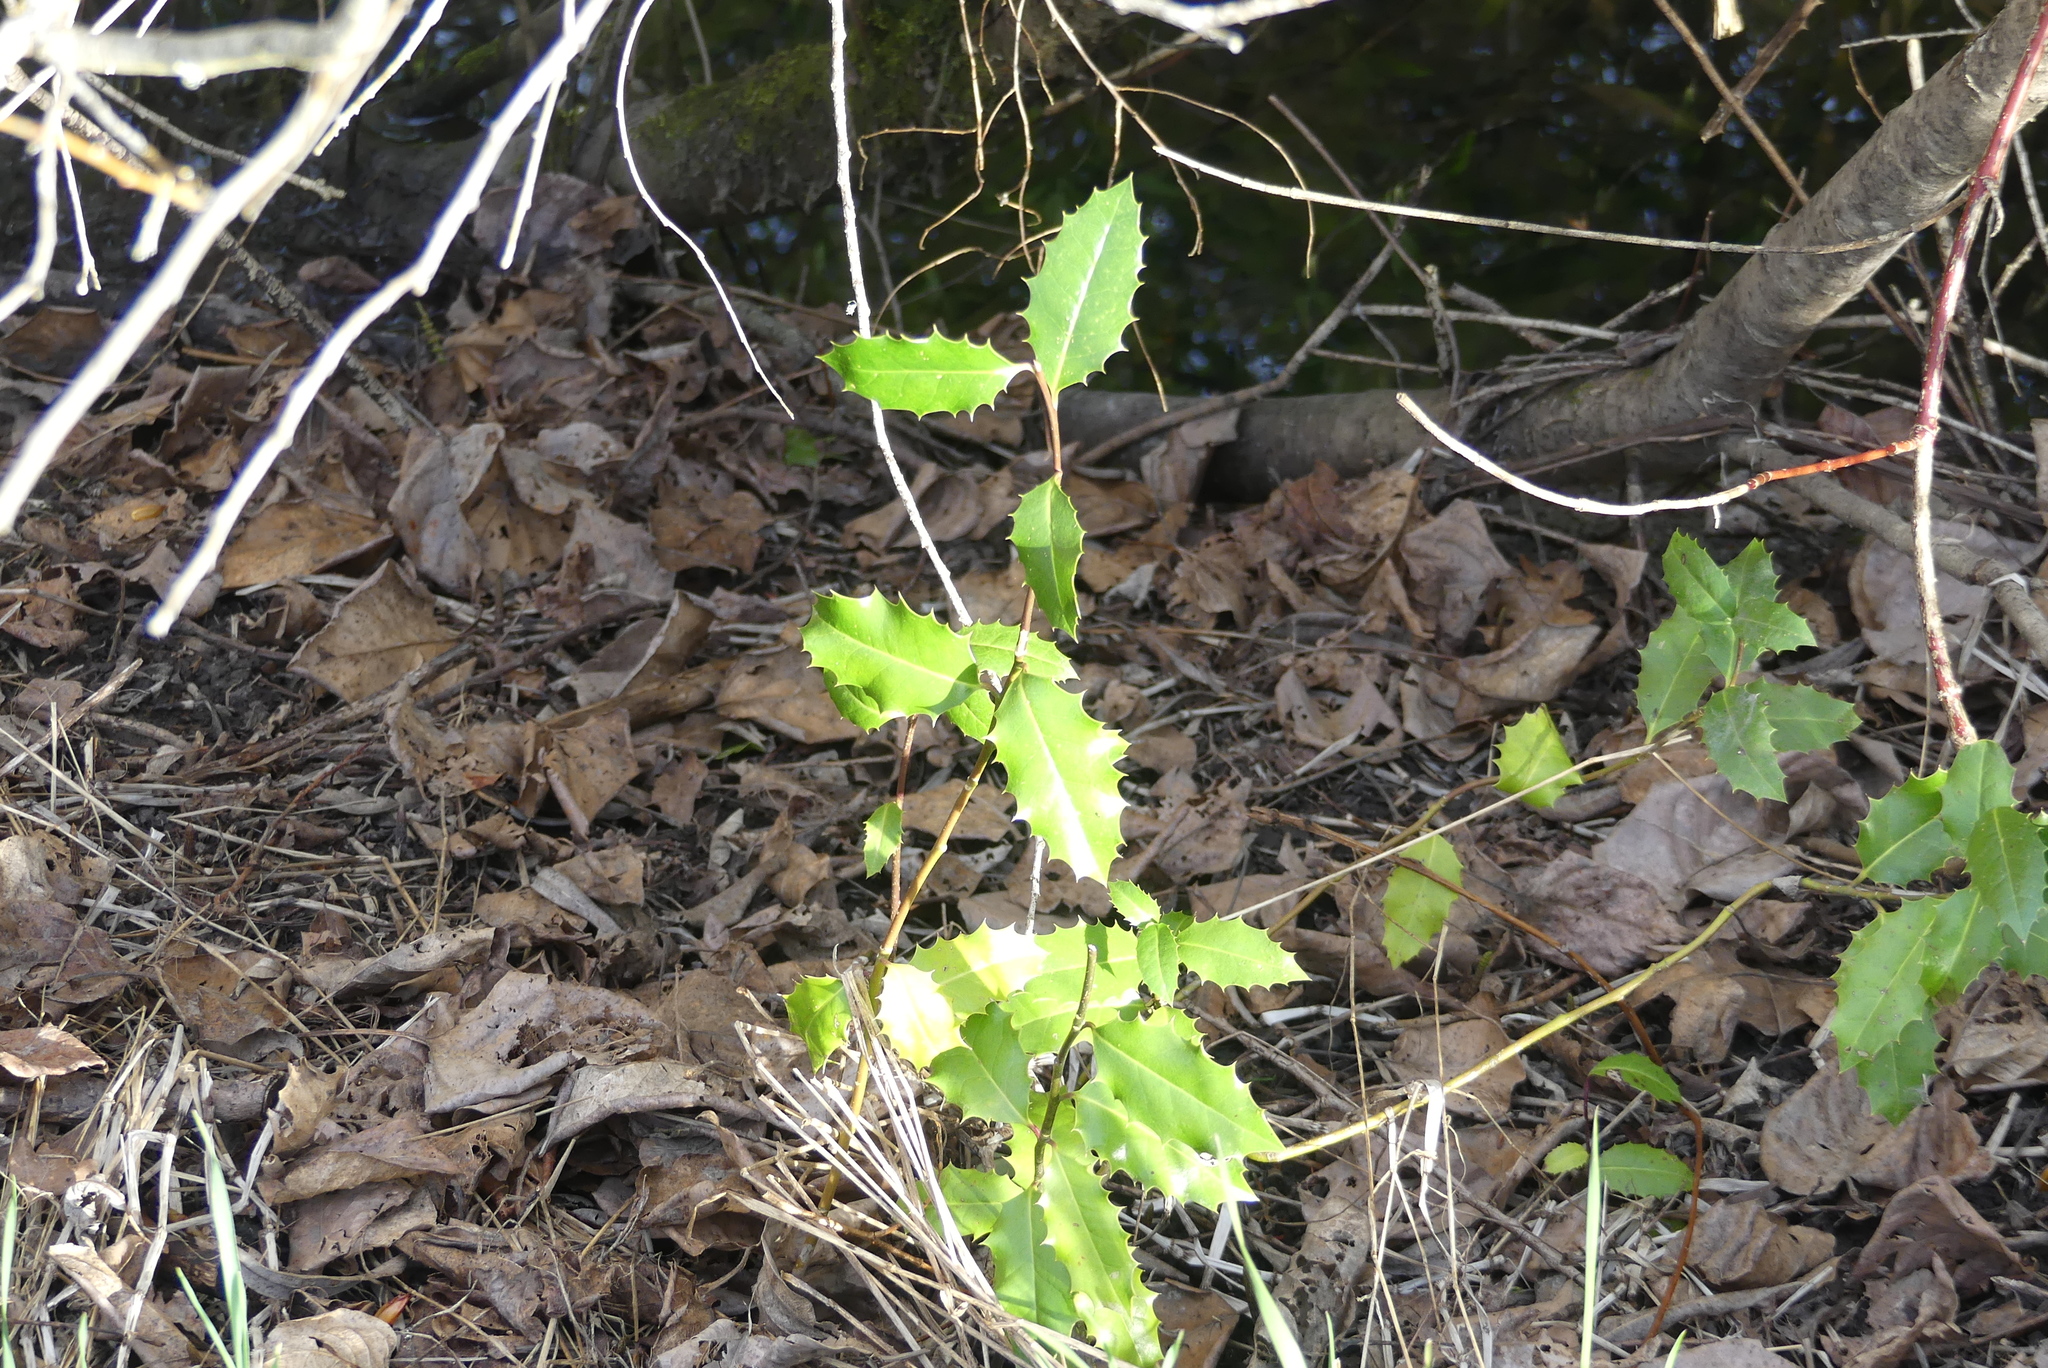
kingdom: Plantae
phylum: Tracheophyta
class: Magnoliopsida
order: Aquifoliales
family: Aquifoliaceae
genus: Ilex
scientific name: Ilex aquifolium
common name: English holly
